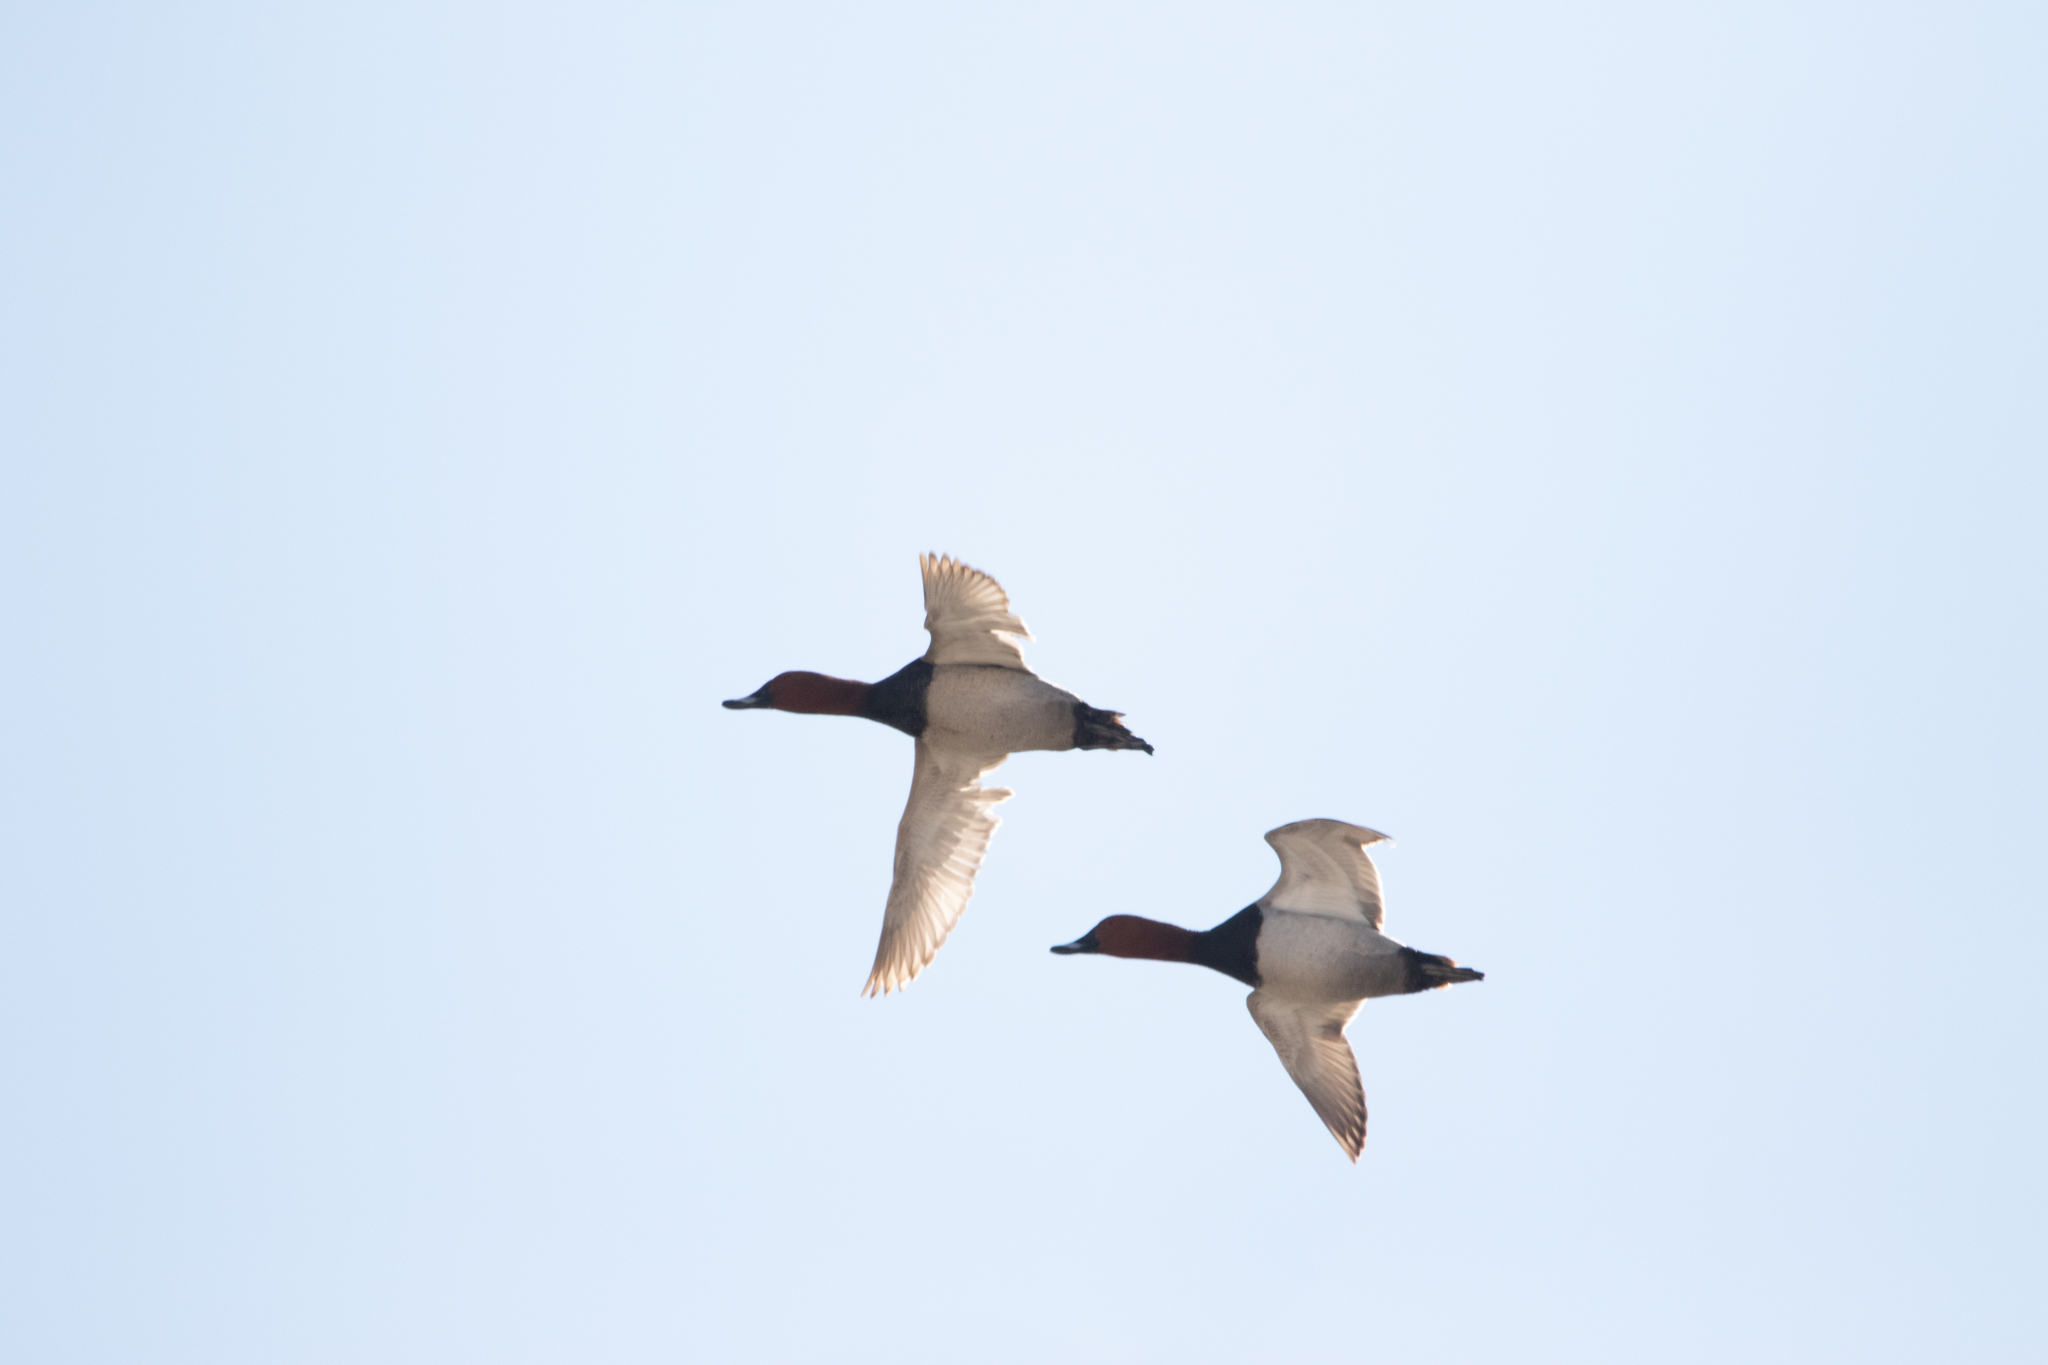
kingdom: Animalia
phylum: Chordata
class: Aves
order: Anseriformes
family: Anatidae
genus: Aythya
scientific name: Aythya ferina
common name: Common pochard
